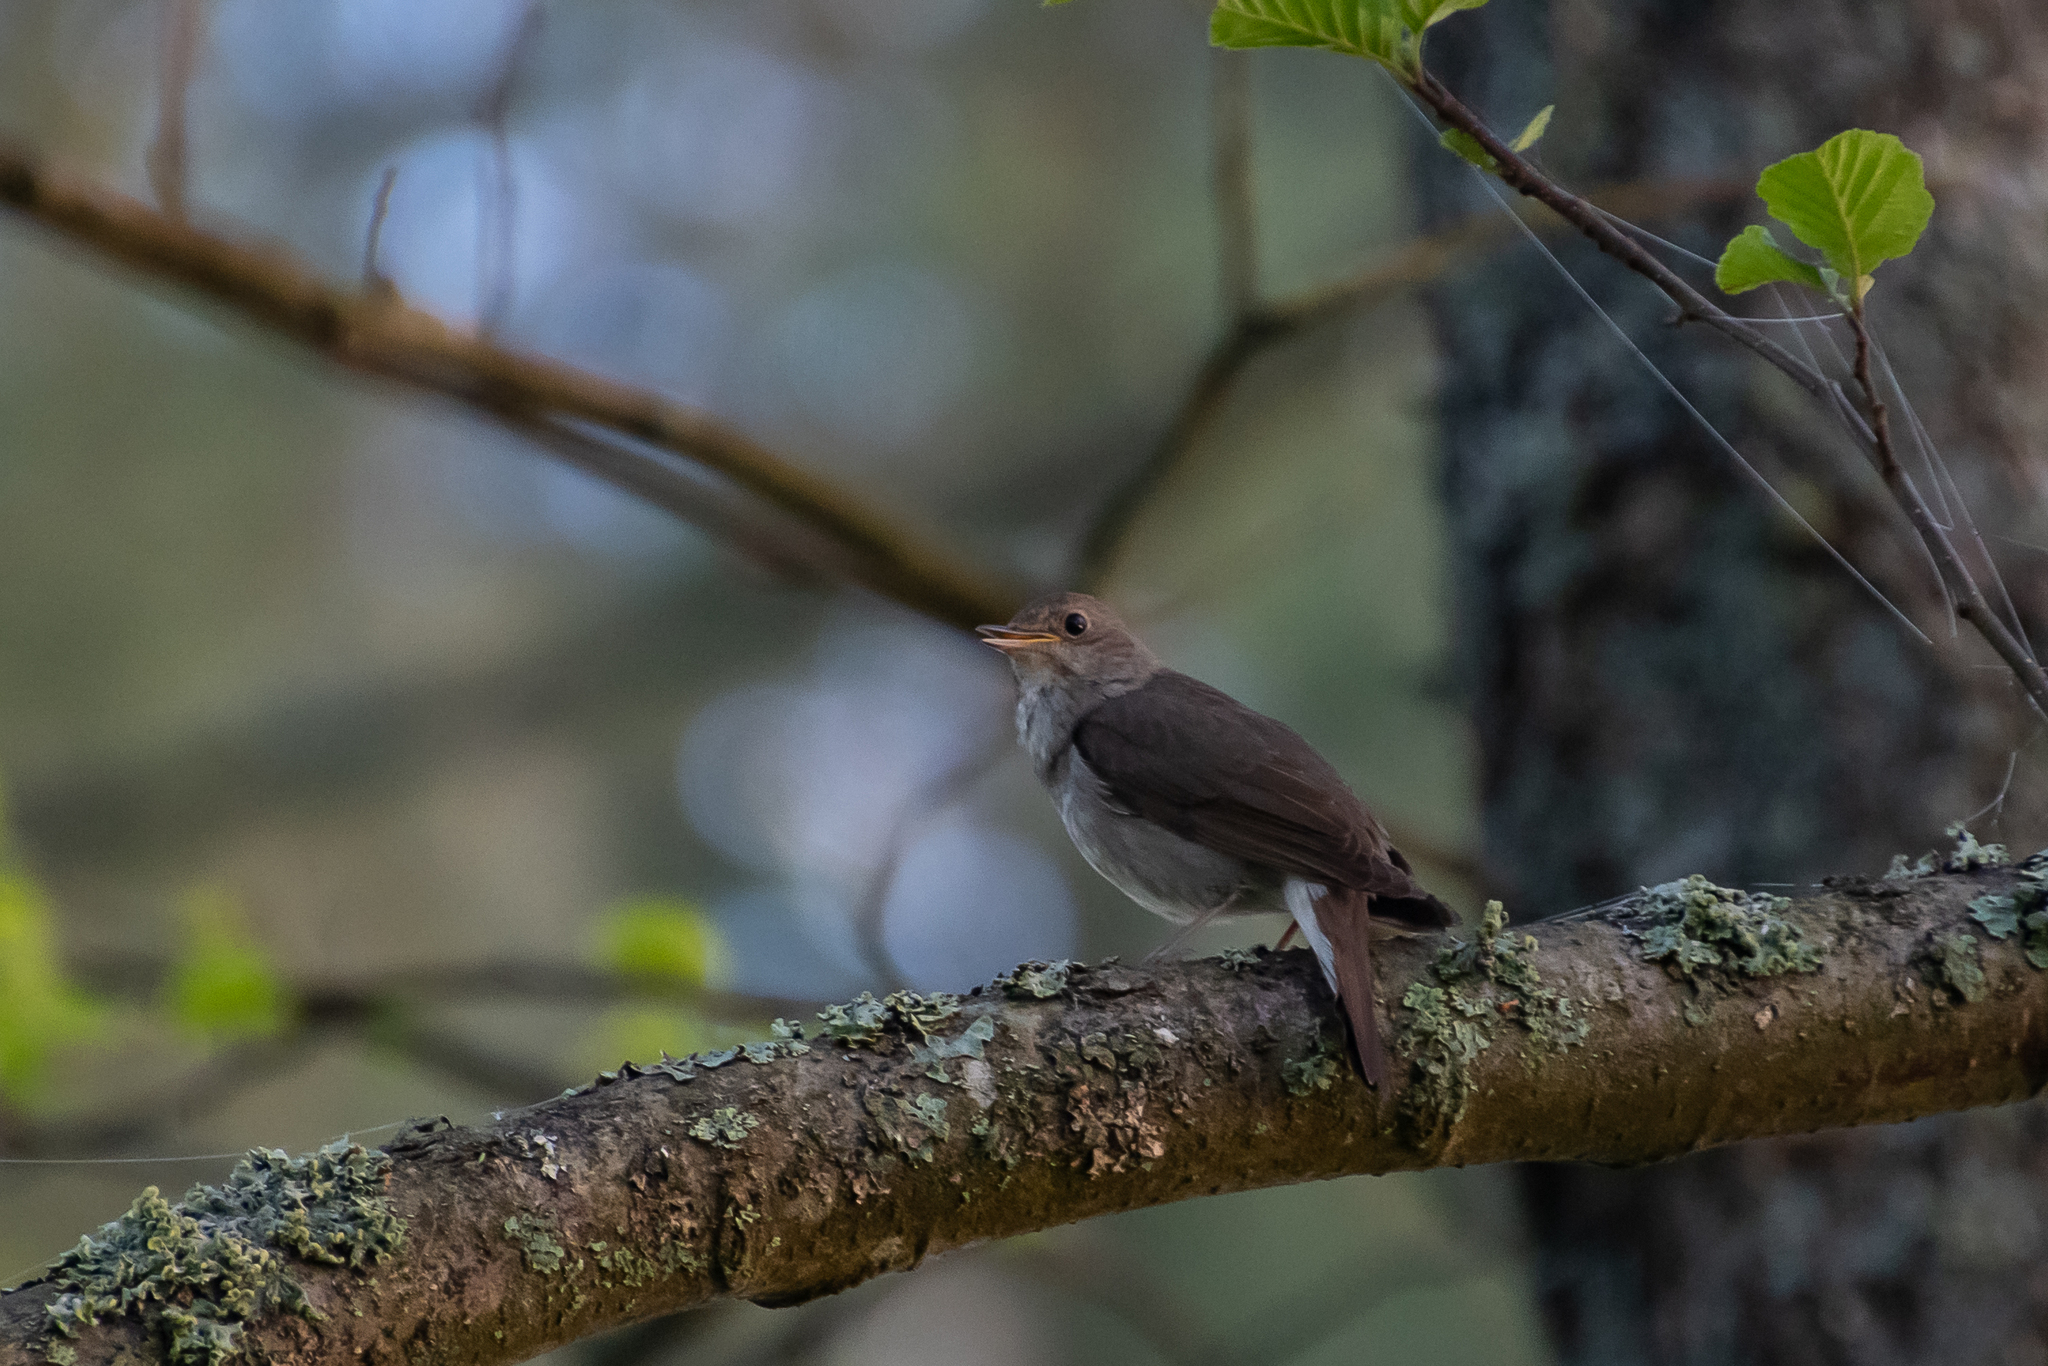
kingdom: Animalia
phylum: Chordata
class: Aves
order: Passeriformes
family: Muscicapidae
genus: Luscinia
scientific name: Luscinia luscinia
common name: Thrush nightingale
